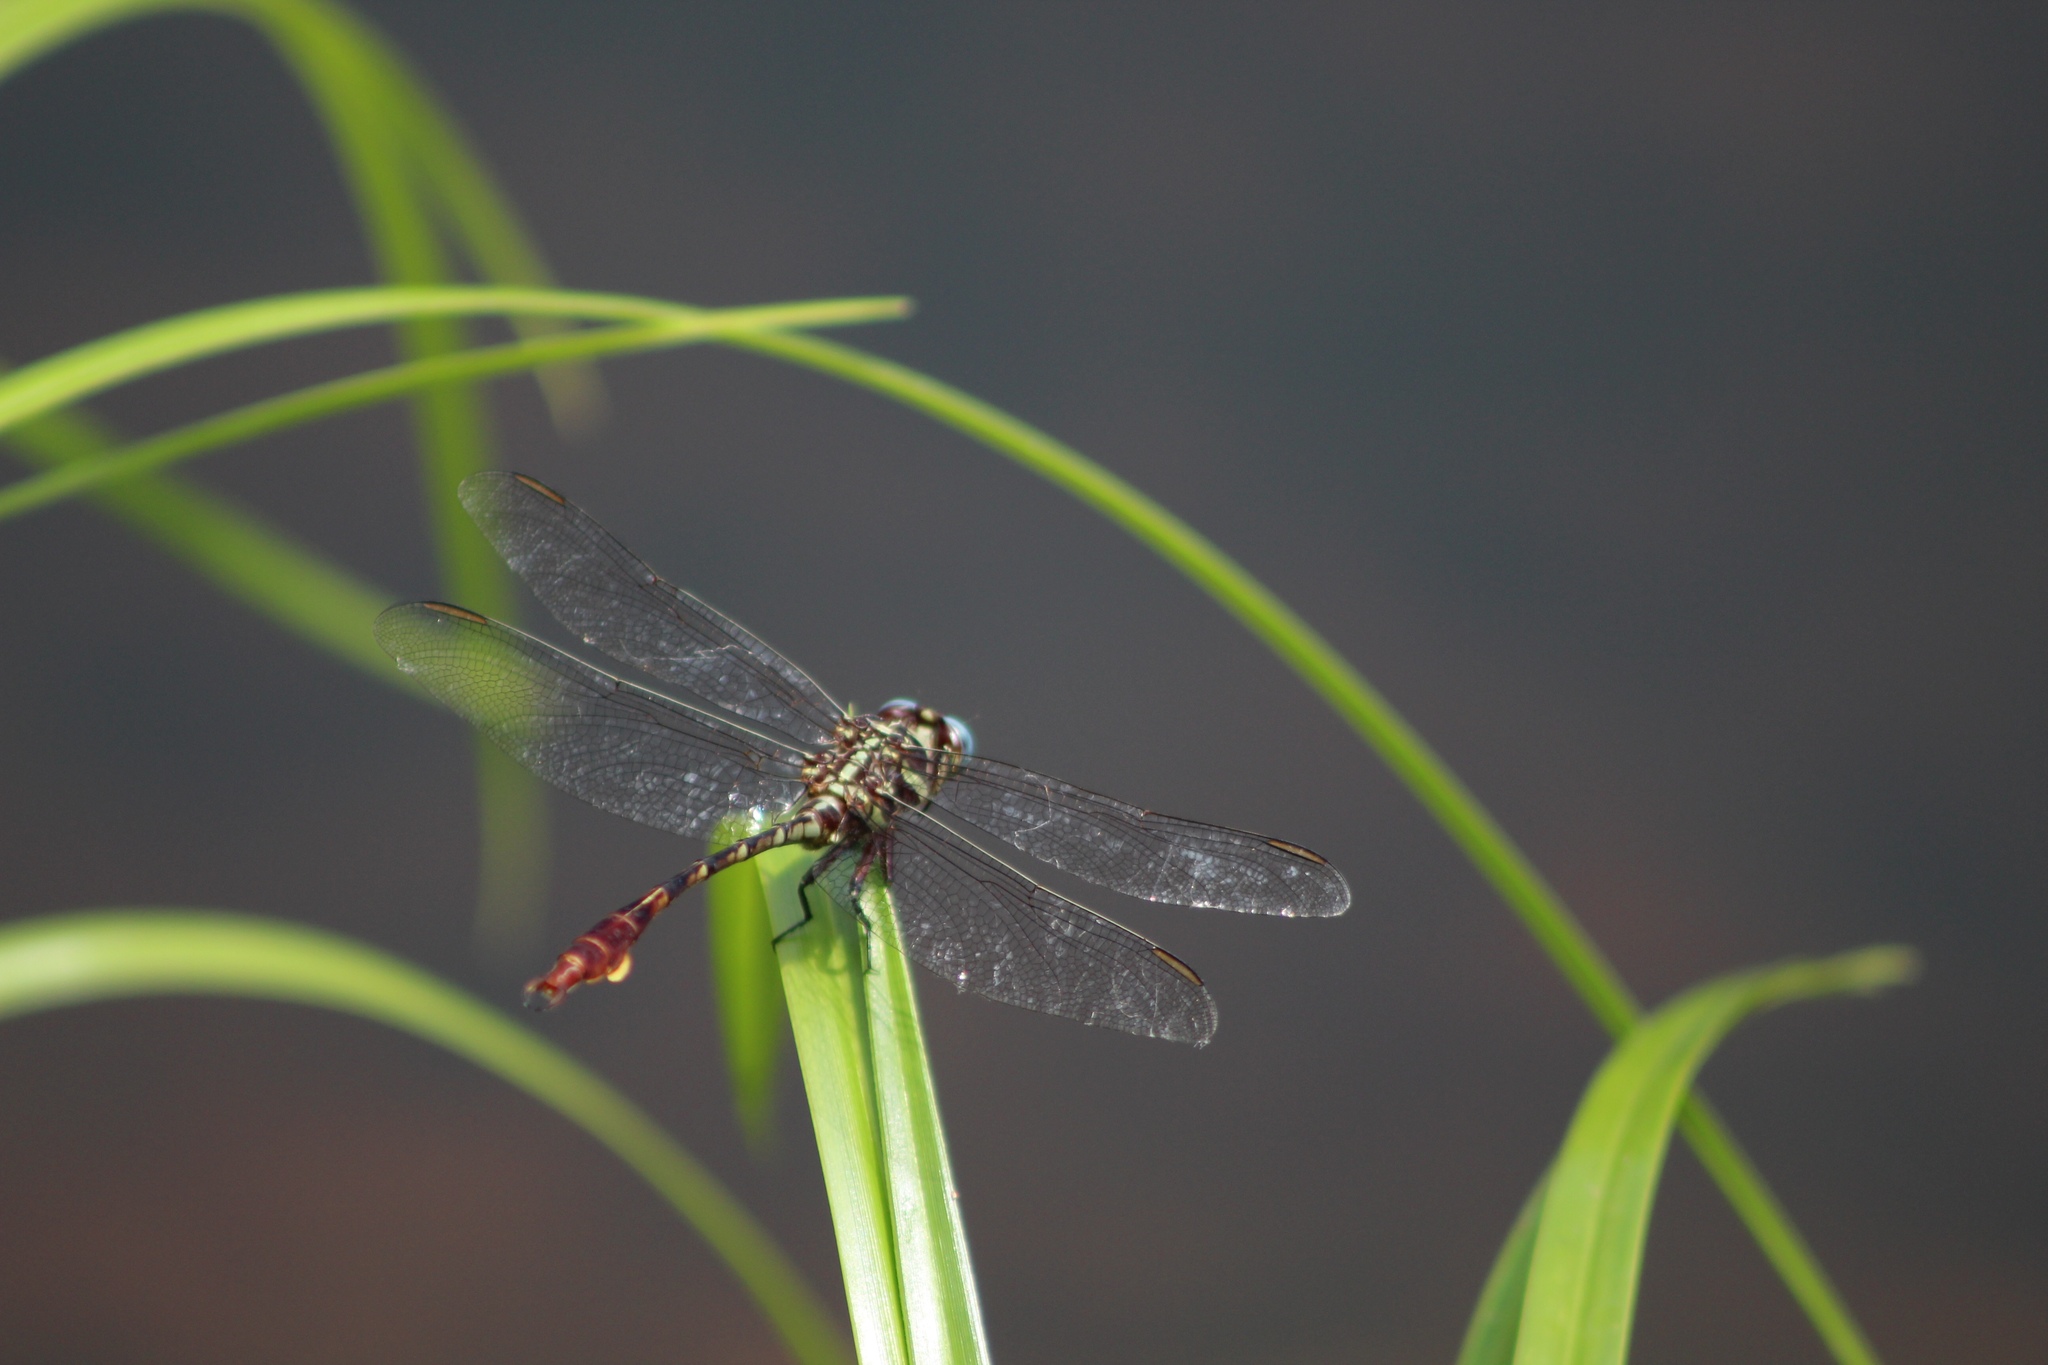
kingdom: Animalia
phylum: Arthropoda
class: Insecta
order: Odonata
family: Gomphidae
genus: Aphylla
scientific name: Aphylla williamsoni
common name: Two-striped forceptail
